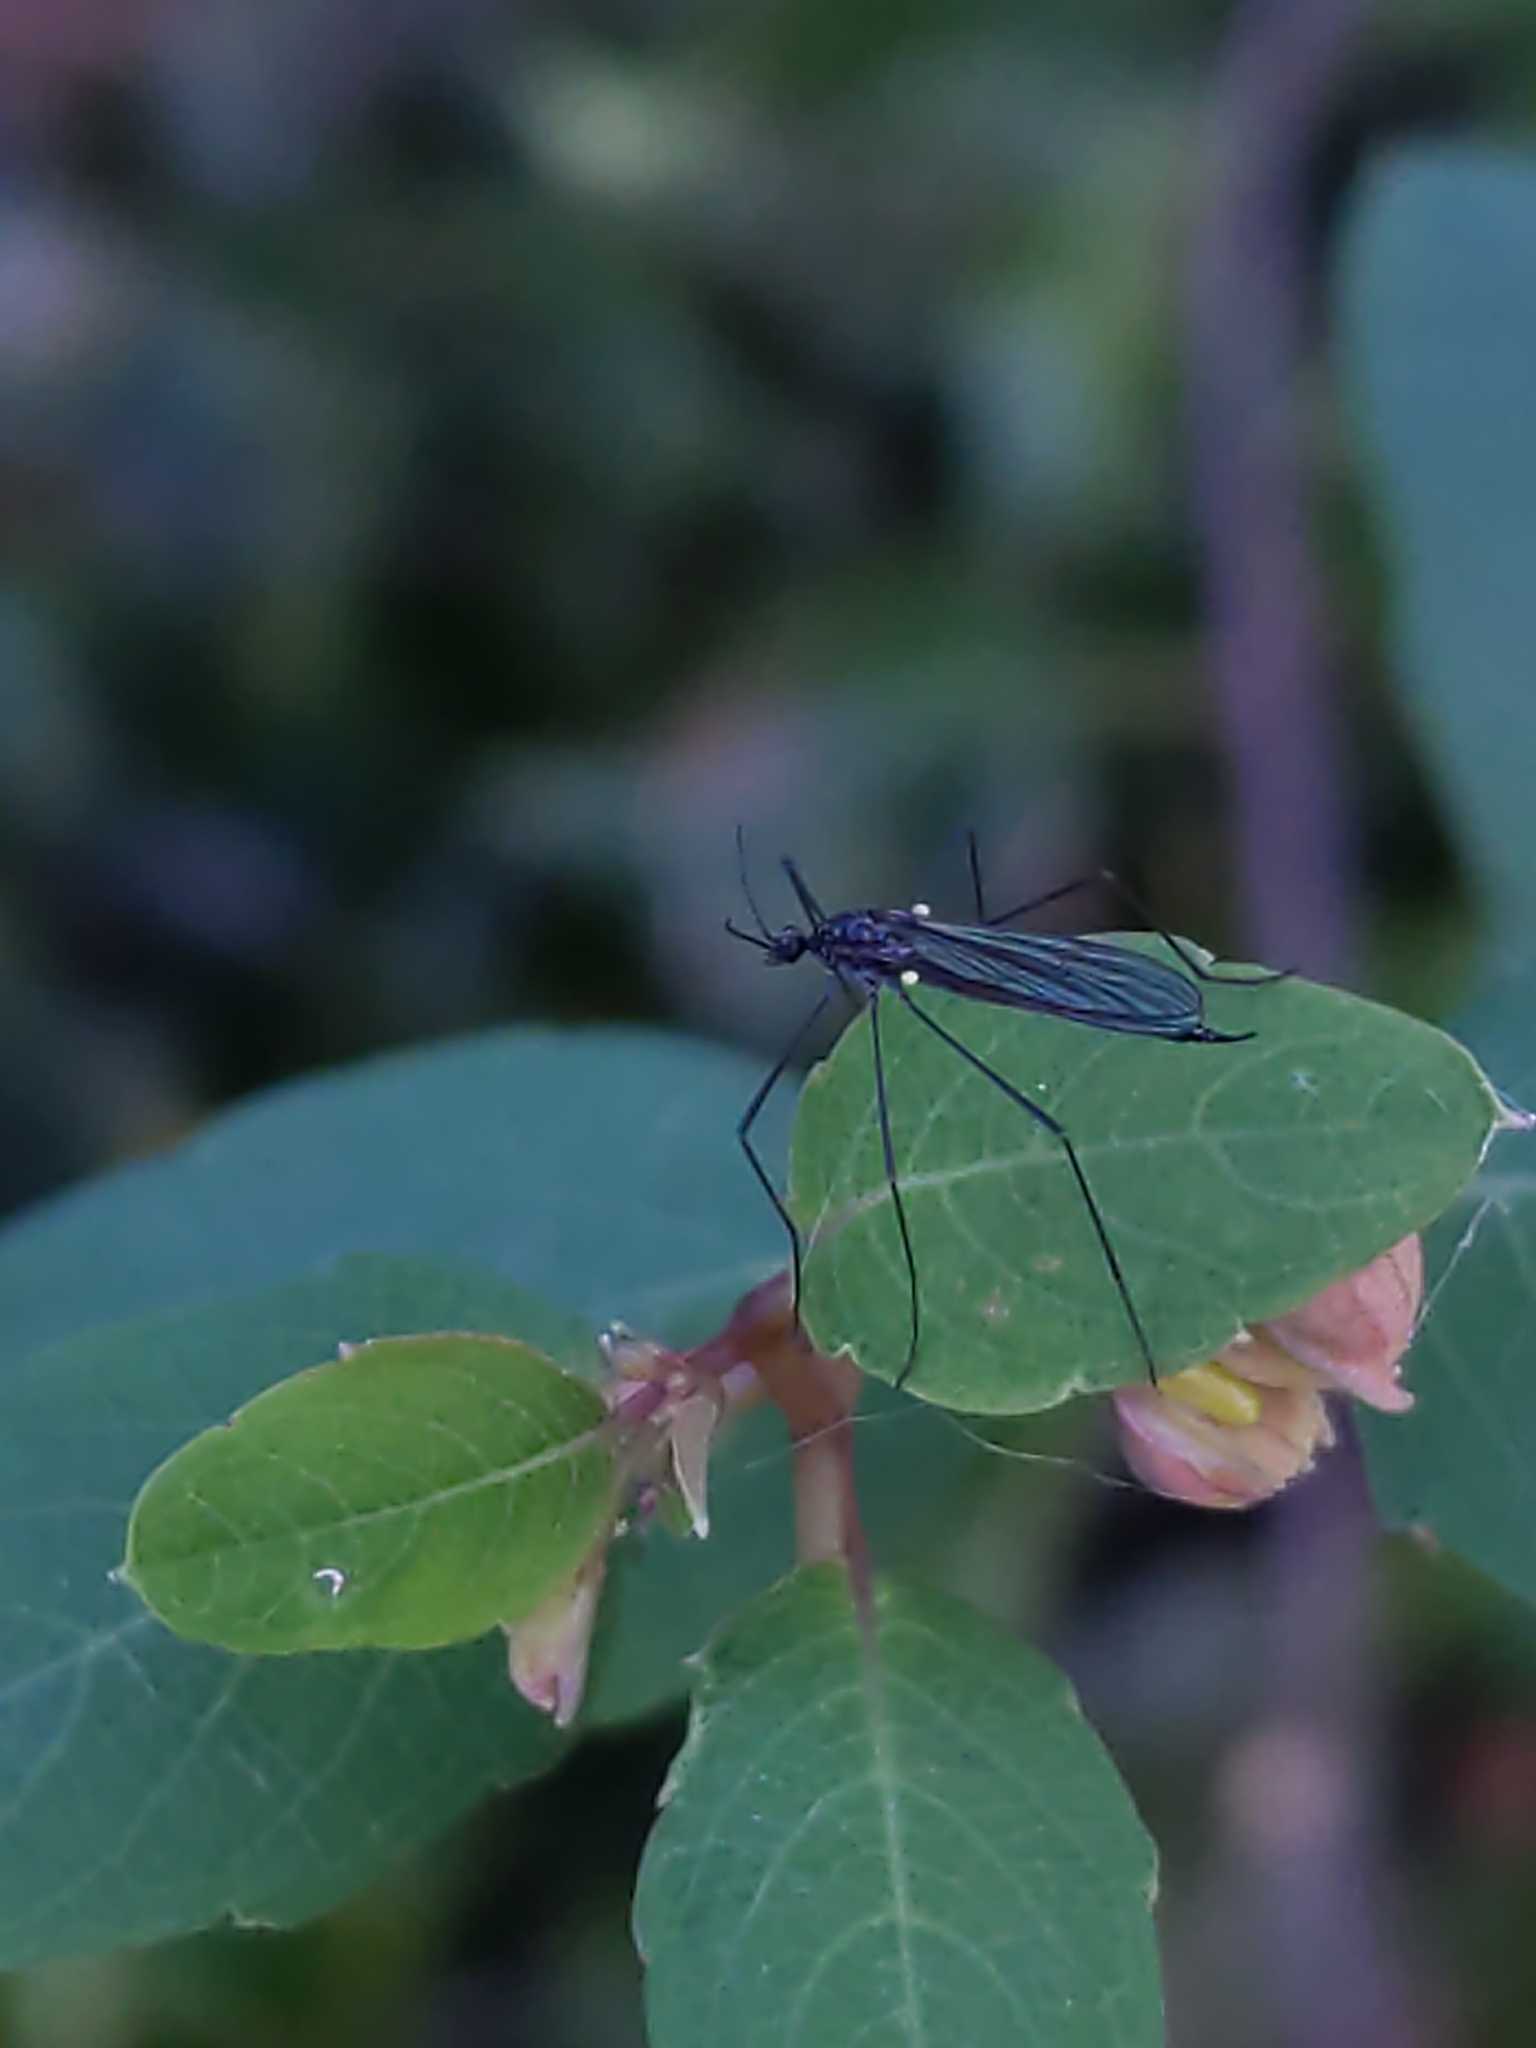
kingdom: Animalia
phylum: Arthropoda
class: Insecta
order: Diptera
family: Limoniidae
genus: Gnophomyia
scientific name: Gnophomyia tristissima
